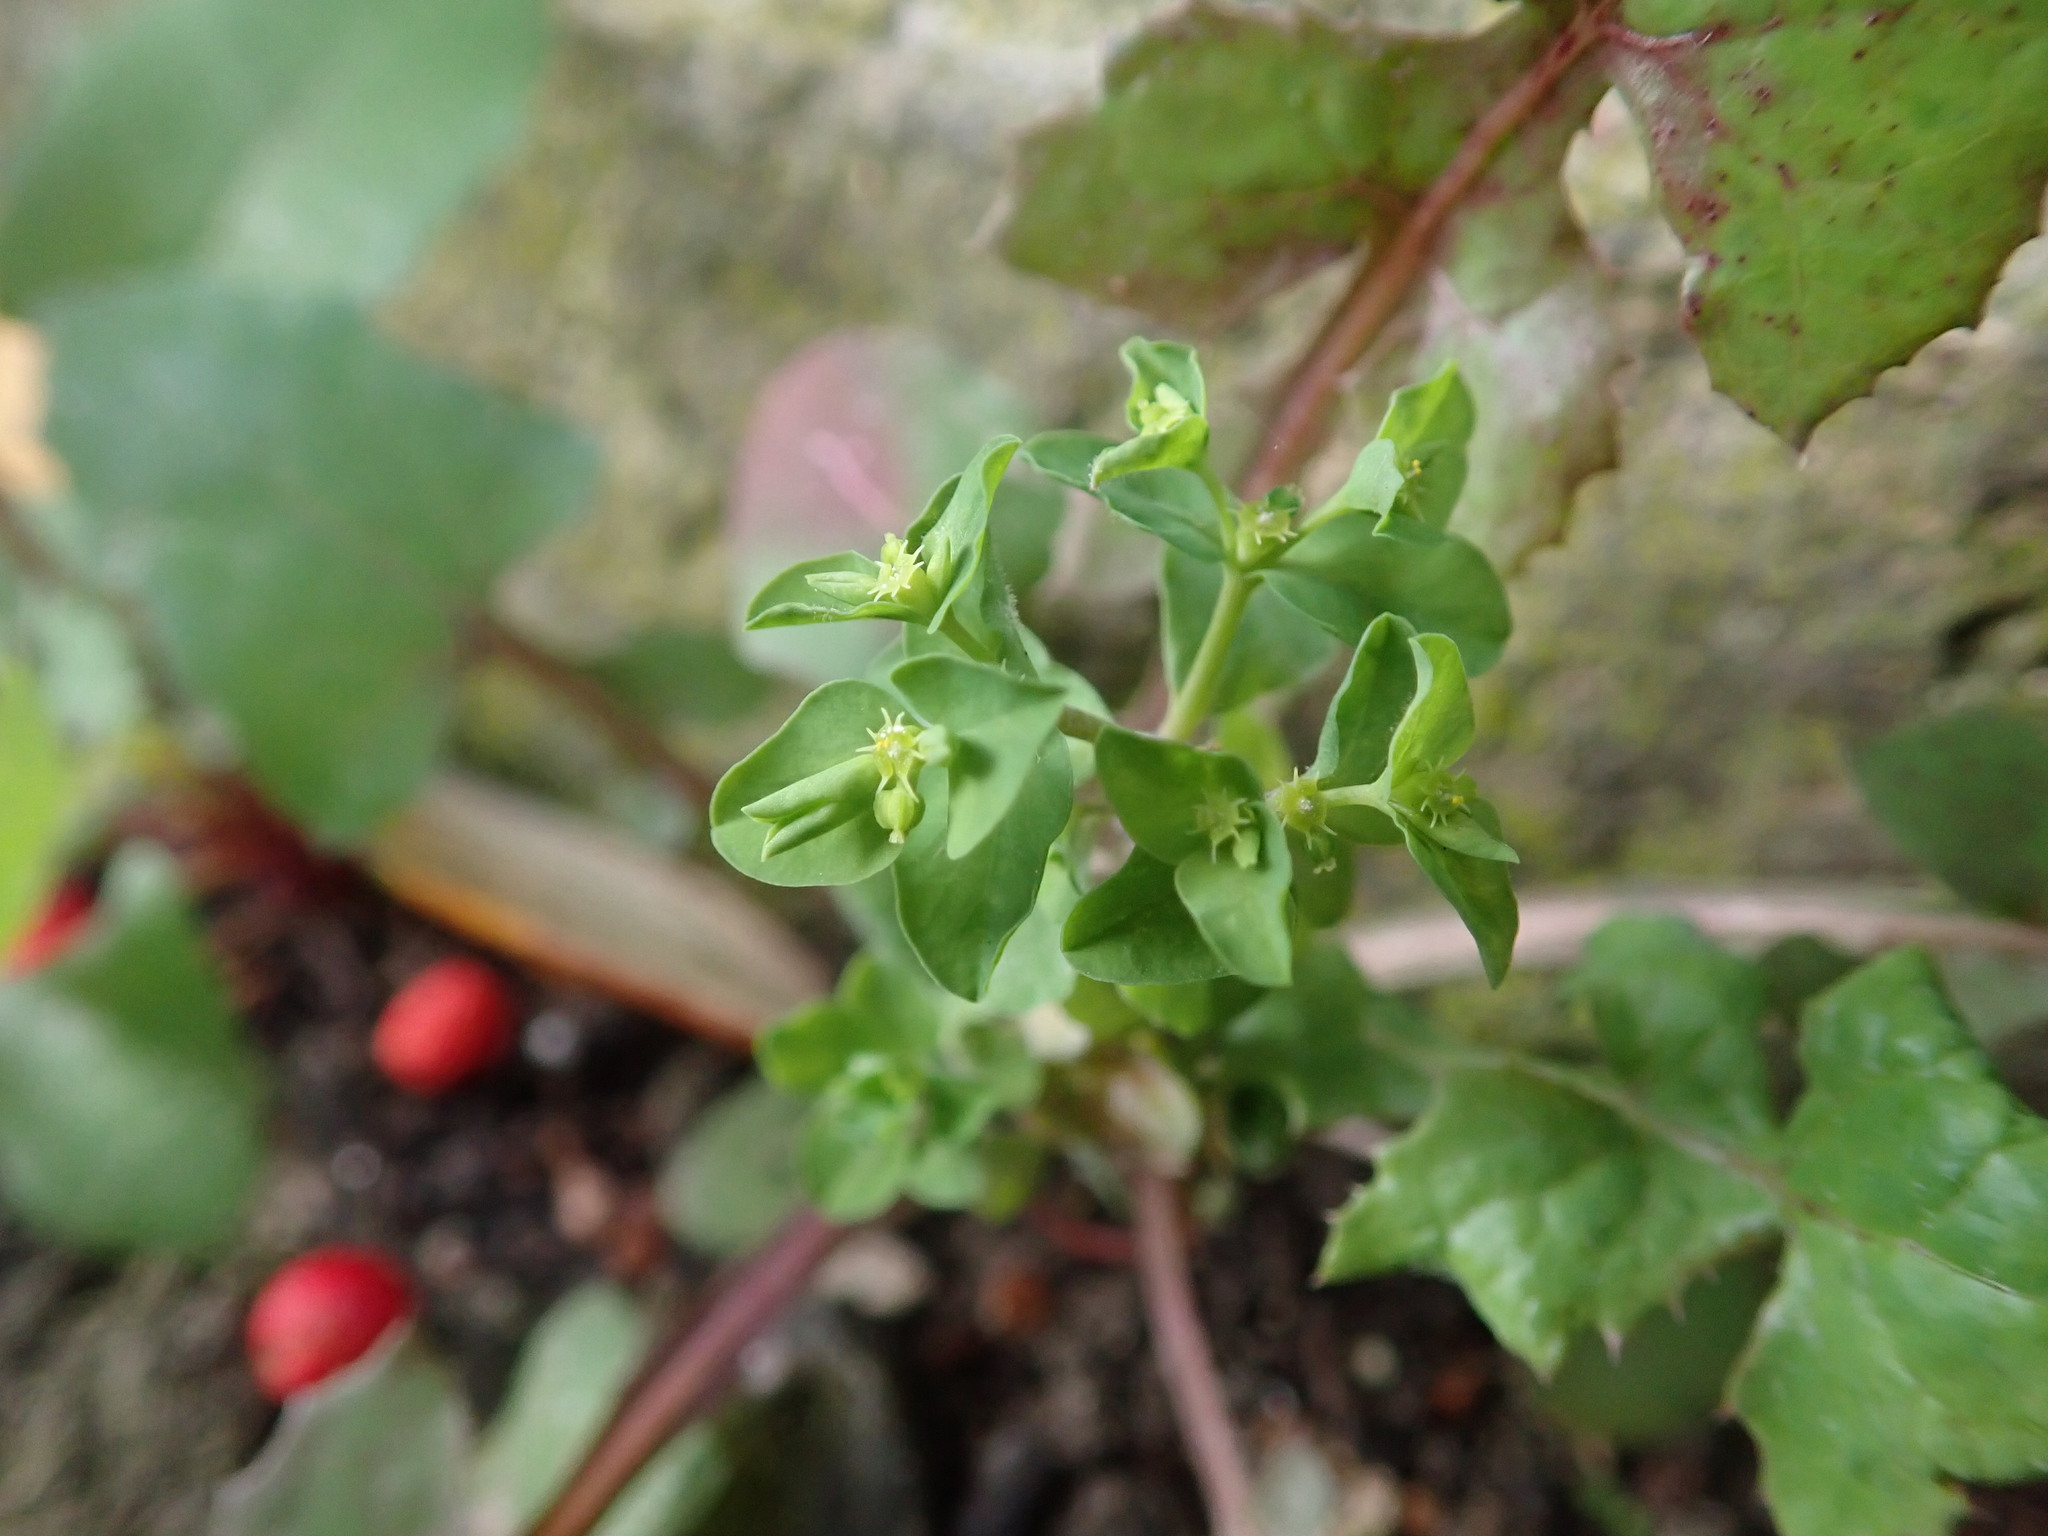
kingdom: Plantae
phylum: Tracheophyta
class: Magnoliopsida
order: Malpighiales
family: Euphorbiaceae
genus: Euphorbia
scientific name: Euphorbia peplus
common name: Petty spurge
